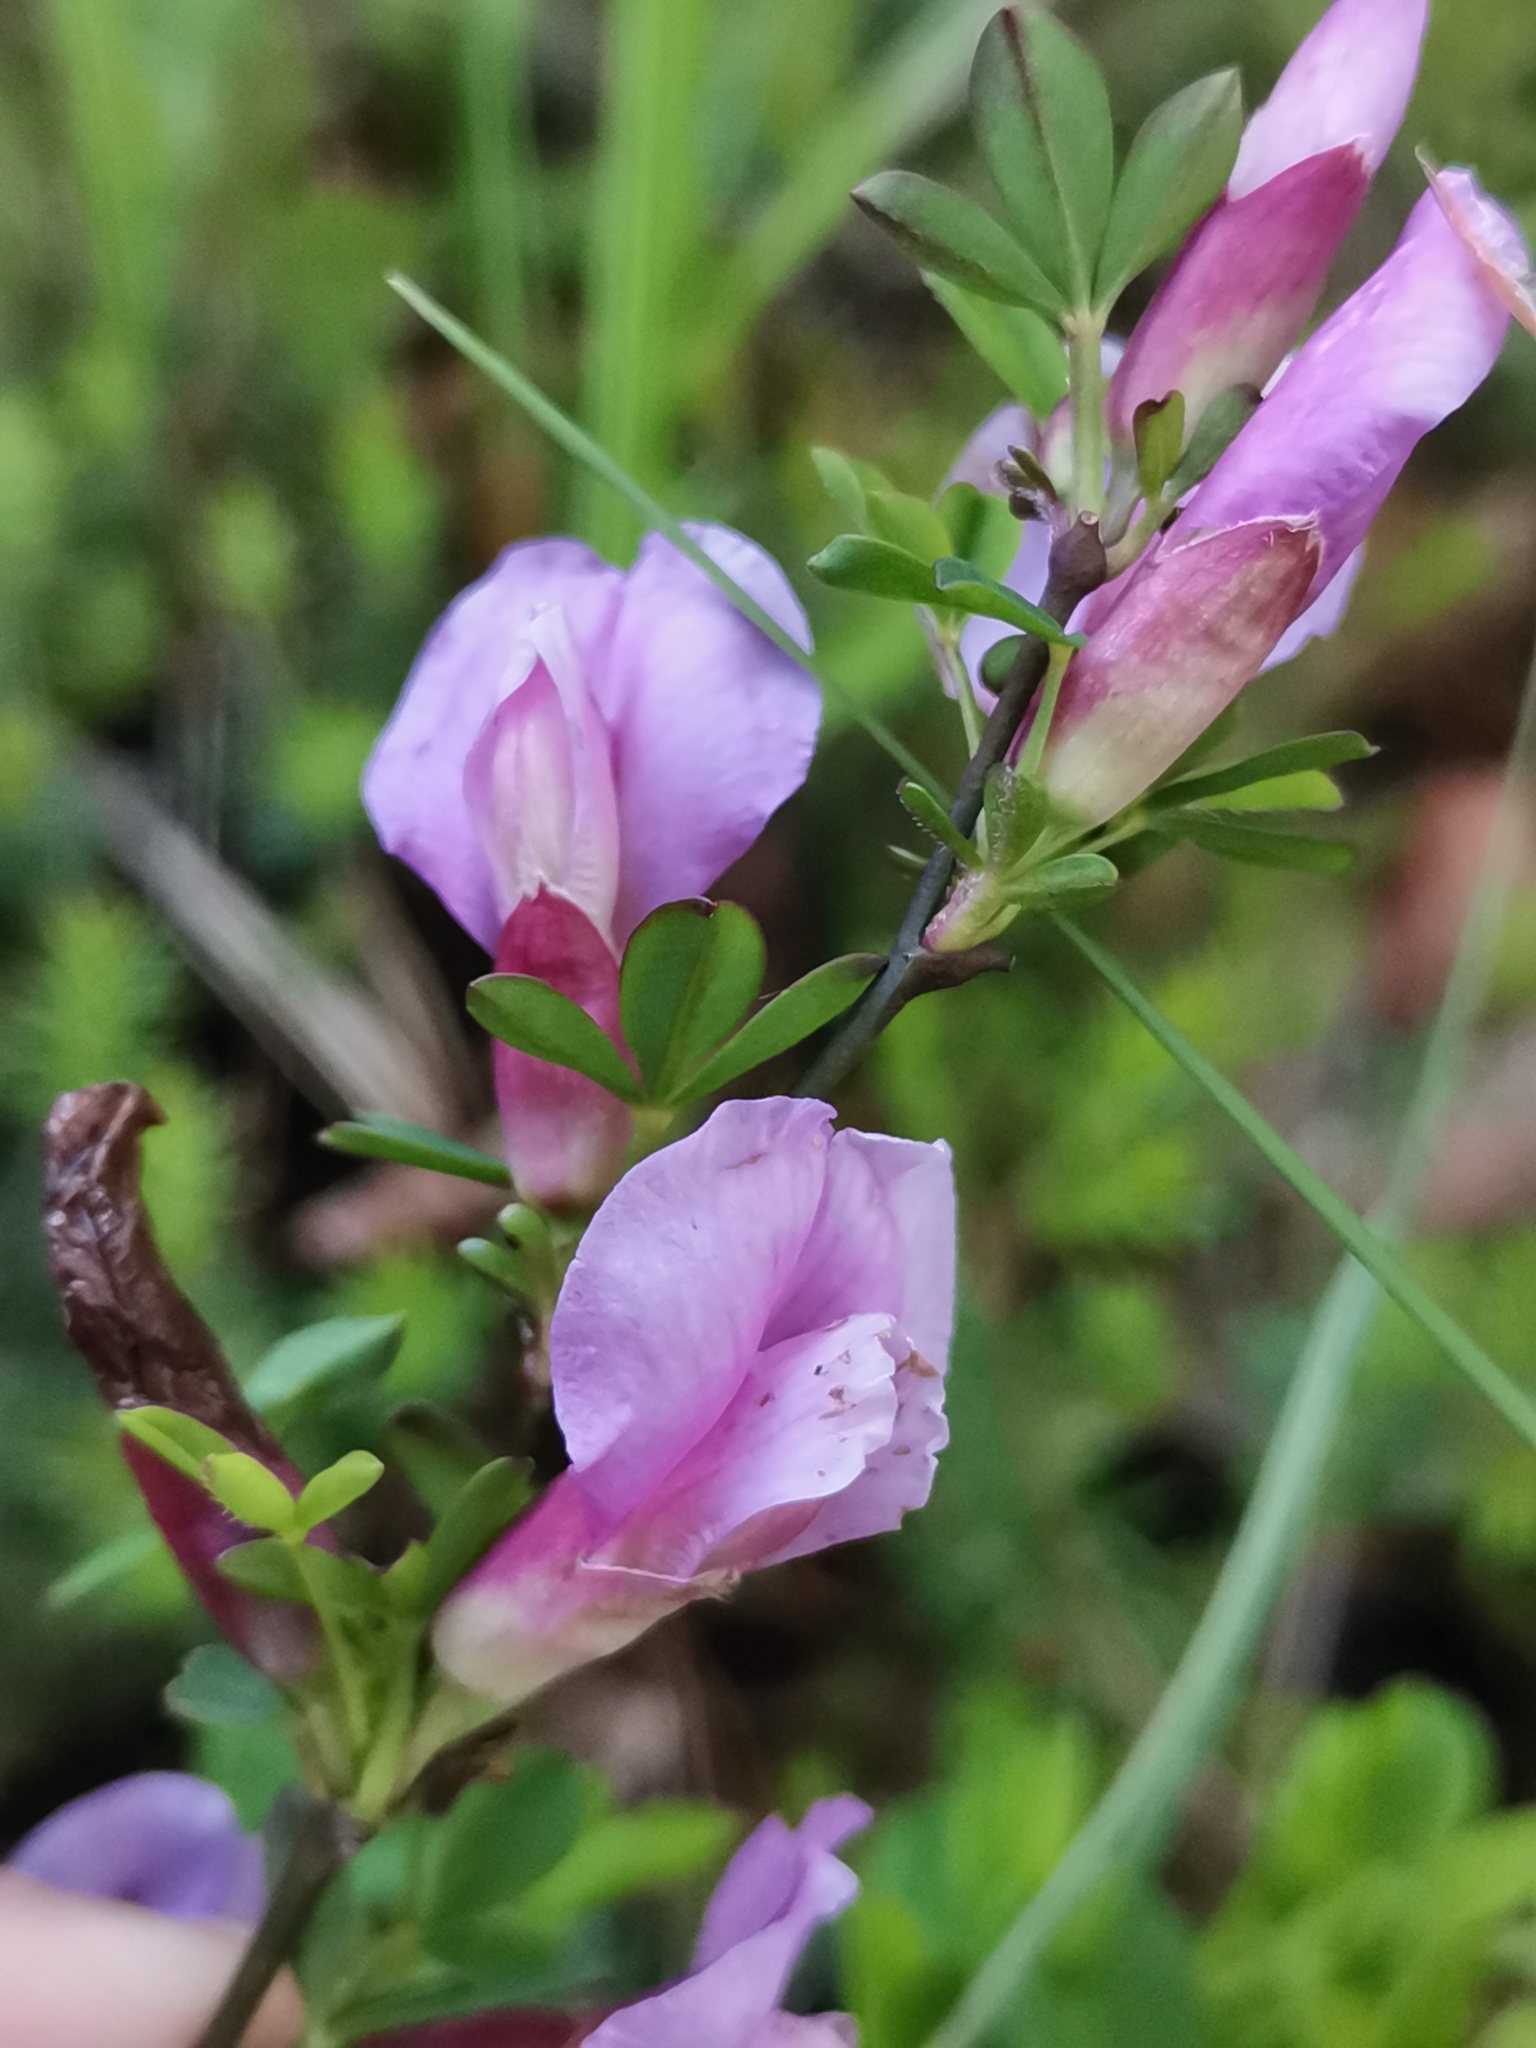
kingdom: Plantae
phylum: Tracheophyta
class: Magnoliopsida
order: Fabales
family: Fabaceae
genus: Chamaecytisus
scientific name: Chamaecytisus purpureus
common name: Purple broom
